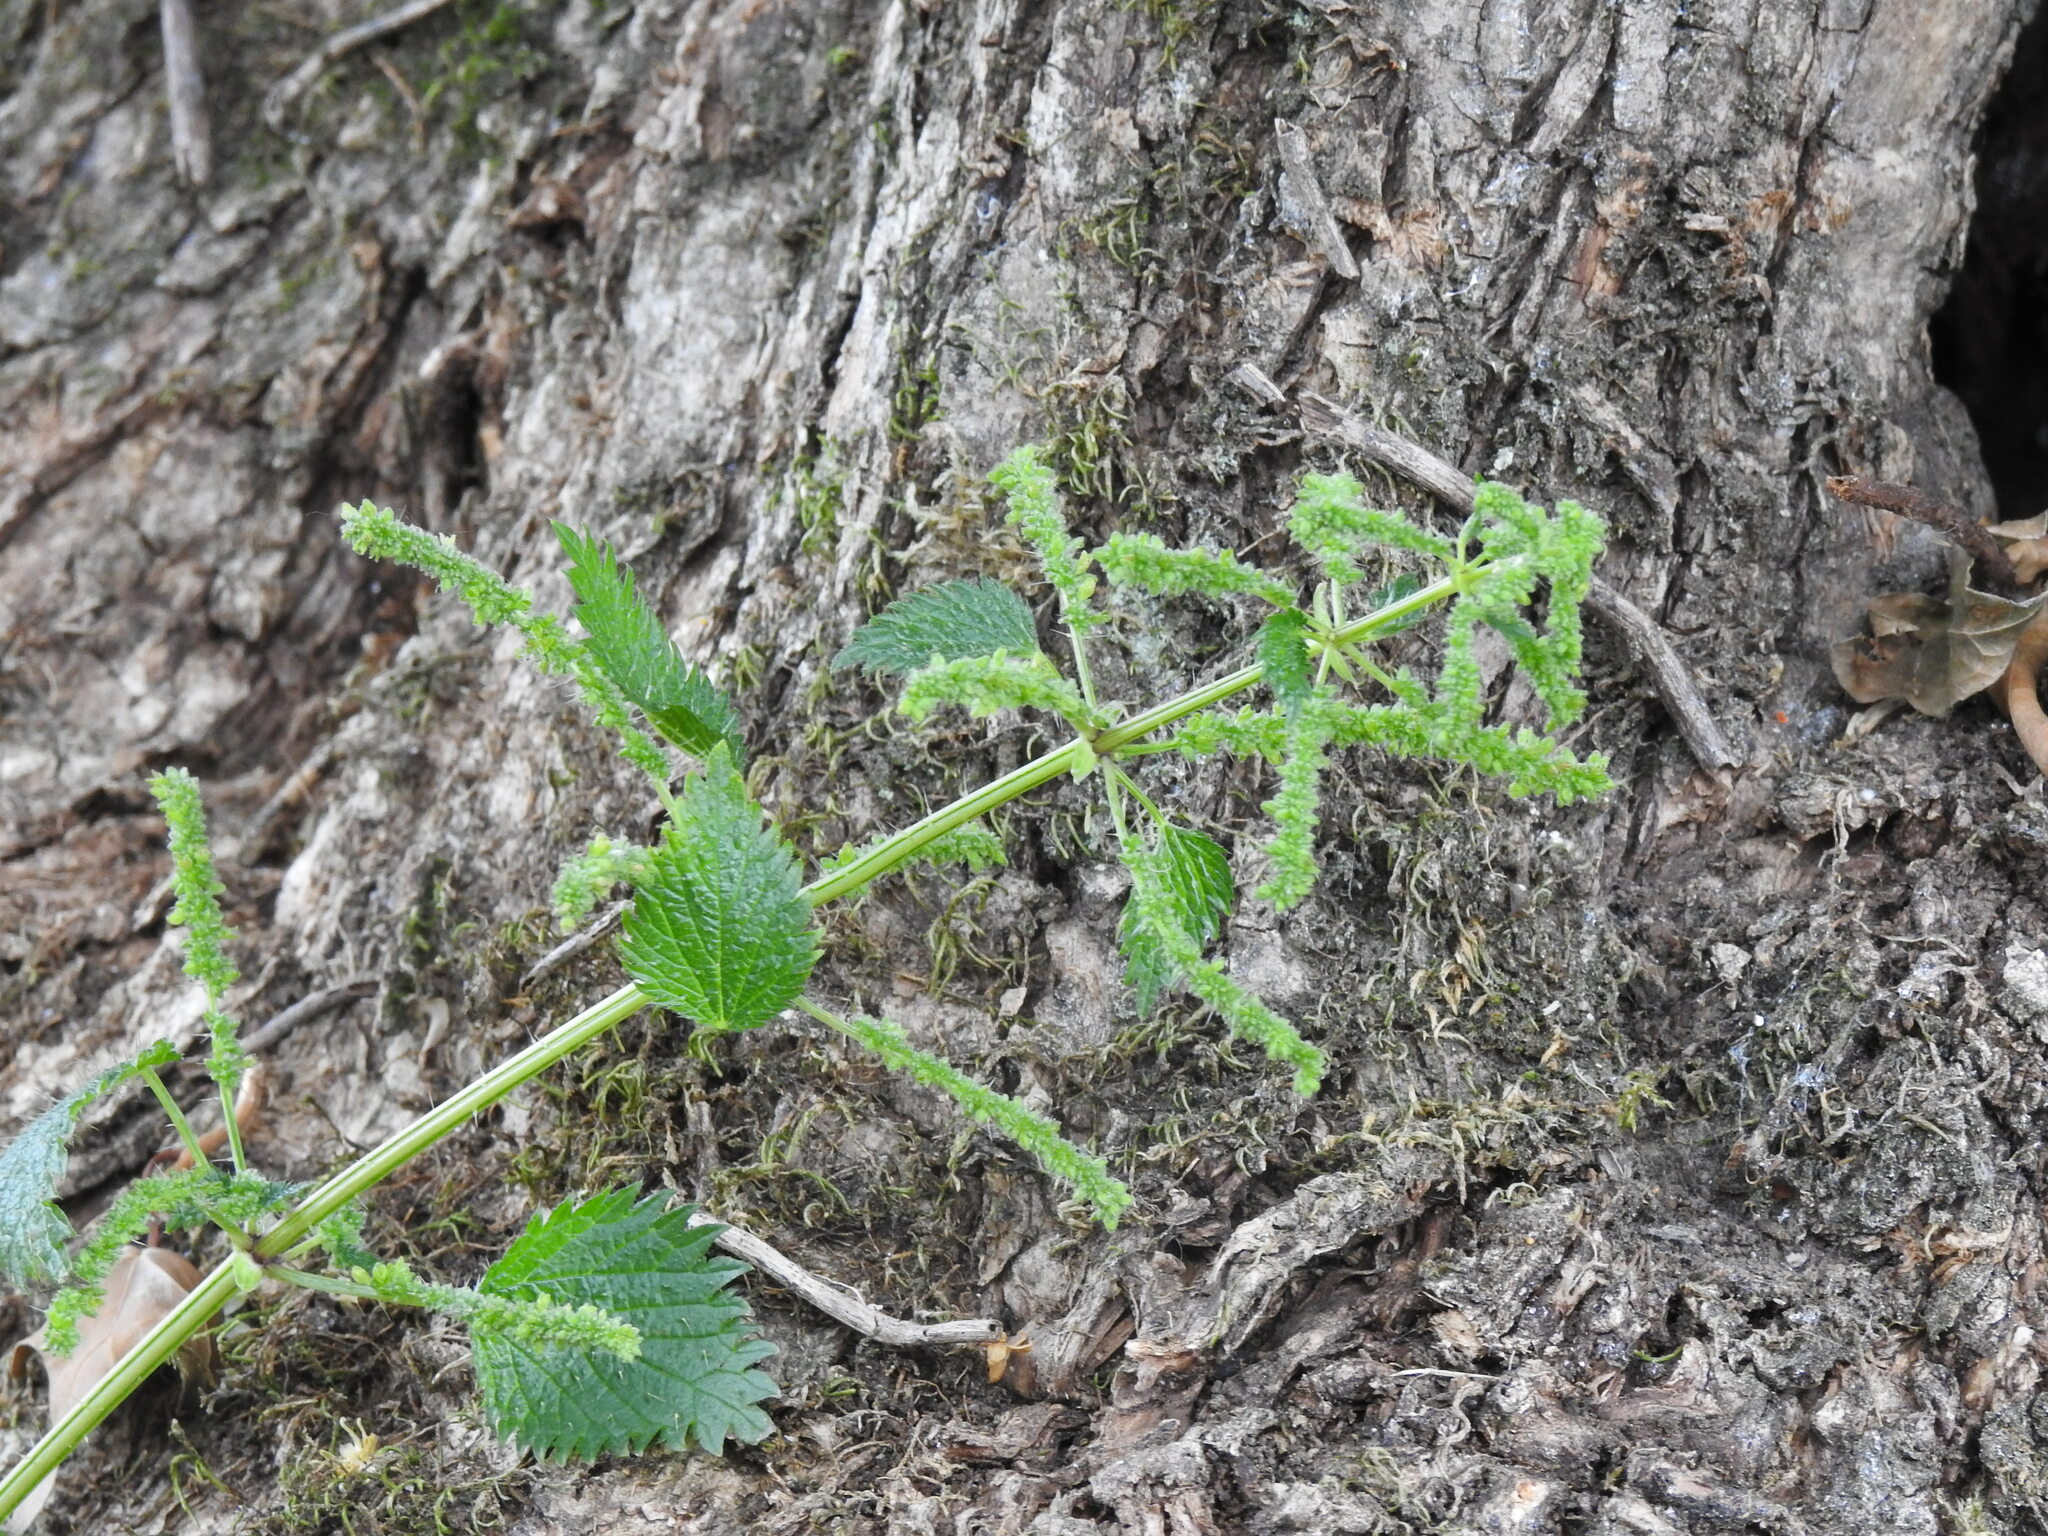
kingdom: Plantae
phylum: Tracheophyta
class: Magnoliopsida
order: Rosales
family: Urticaceae
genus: Urtica
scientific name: Urtica membranacea
